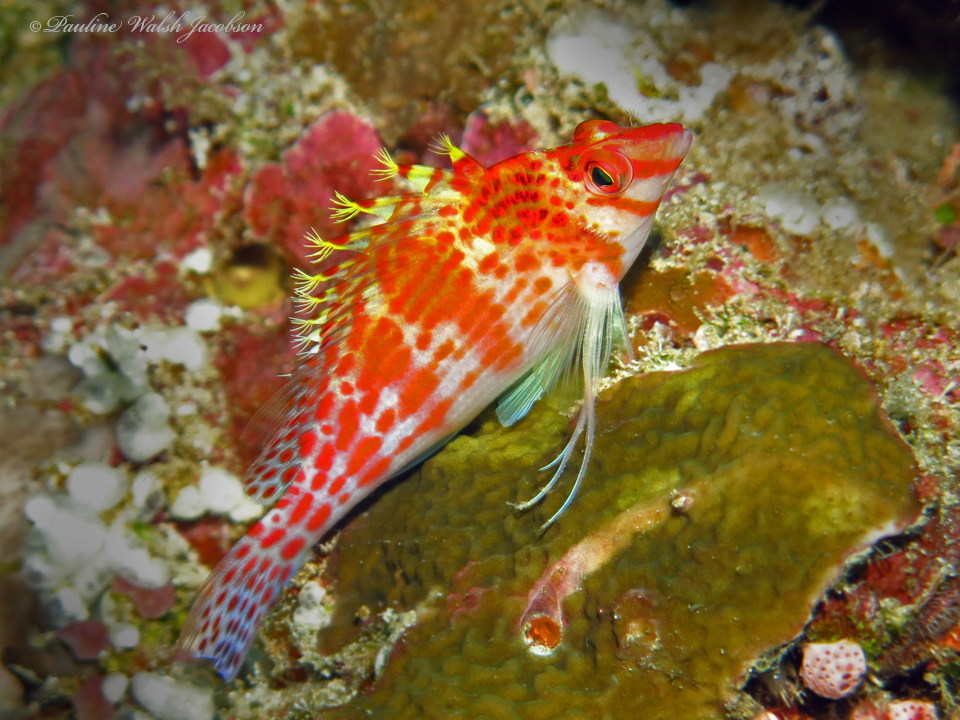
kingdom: Animalia
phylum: Chordata
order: Perciformes
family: Cirrhitidae
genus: Cirrhitichthys
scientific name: Cirrhitichthys falco
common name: Coral hawkfish
